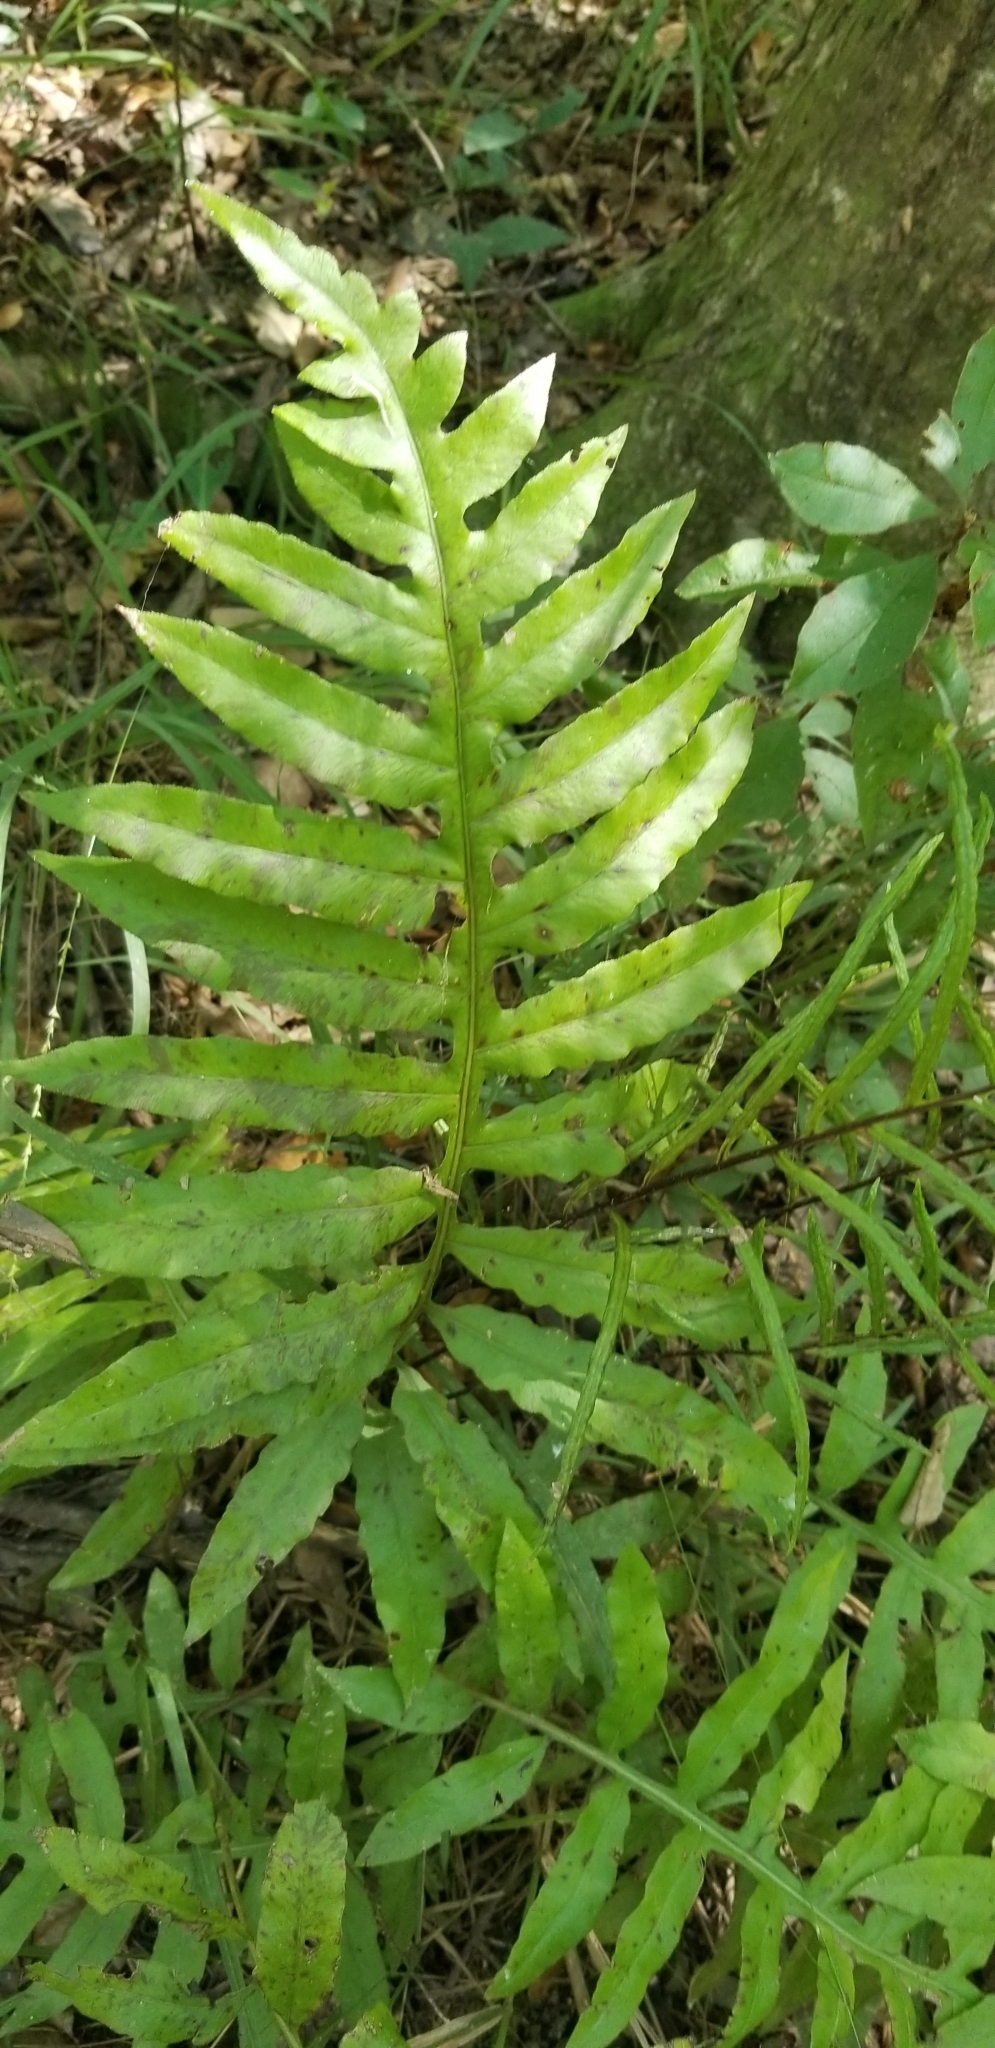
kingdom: Plantae
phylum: Tracheophyta
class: Polypodiopsida
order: Polypodiales
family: Blechnaceae
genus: Lorinseria
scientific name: Lorinseria areolata
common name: Dwarf chain fern
